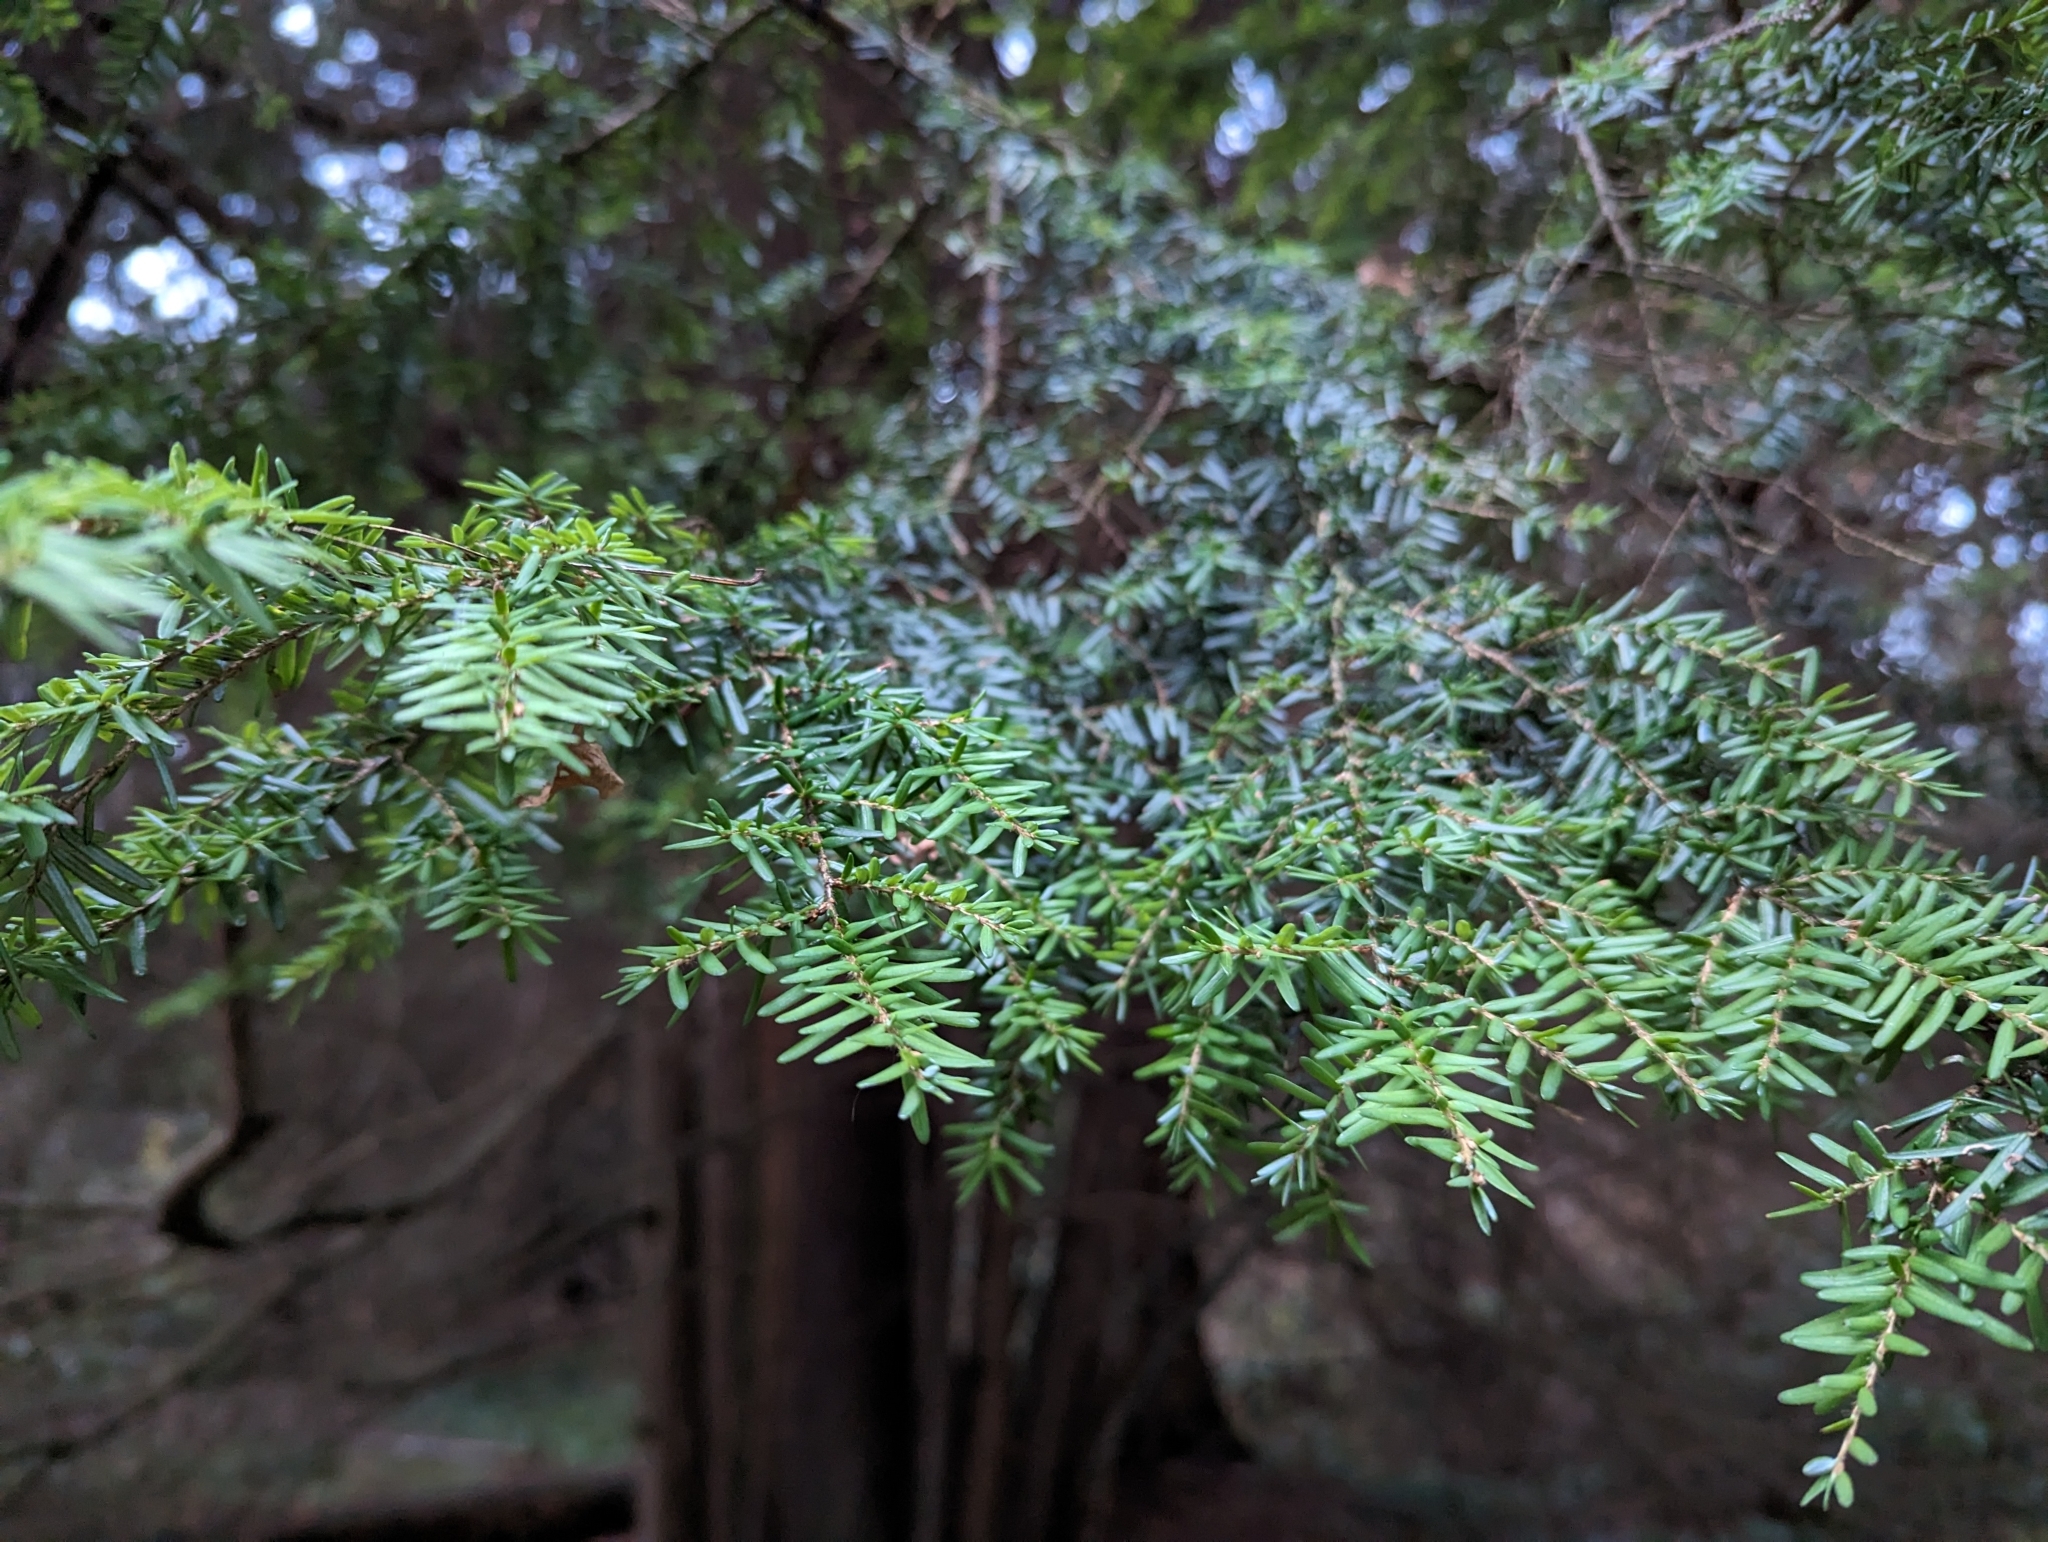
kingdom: Plantae
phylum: Tracheophyta
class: Pinopsida
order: Pinales
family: Pinaceae
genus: Tsuga
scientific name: Tsuga heterophylla
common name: Western hemlock
